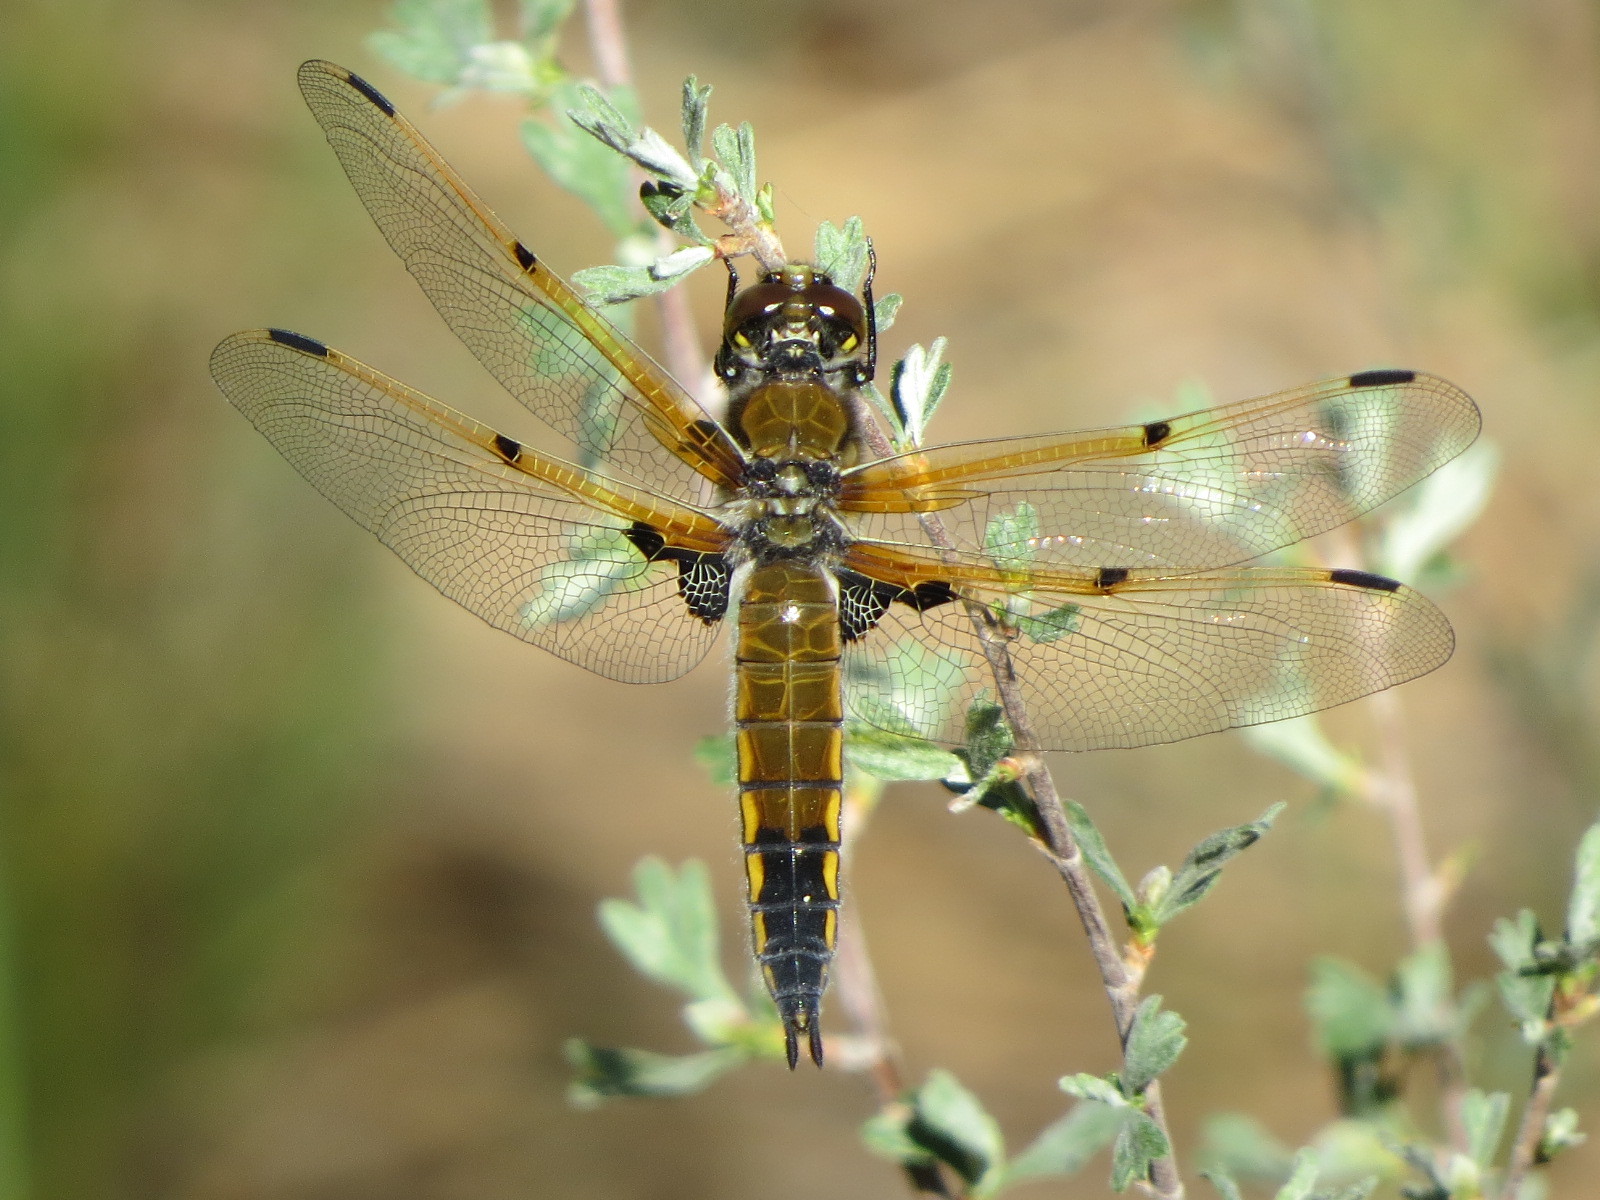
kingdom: Animalia
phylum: Arthropoda
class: Insecta
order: Odonata
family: Libellulidae
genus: Libellula
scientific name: Libellula quadrimaculata
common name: Four-spotted chaser
